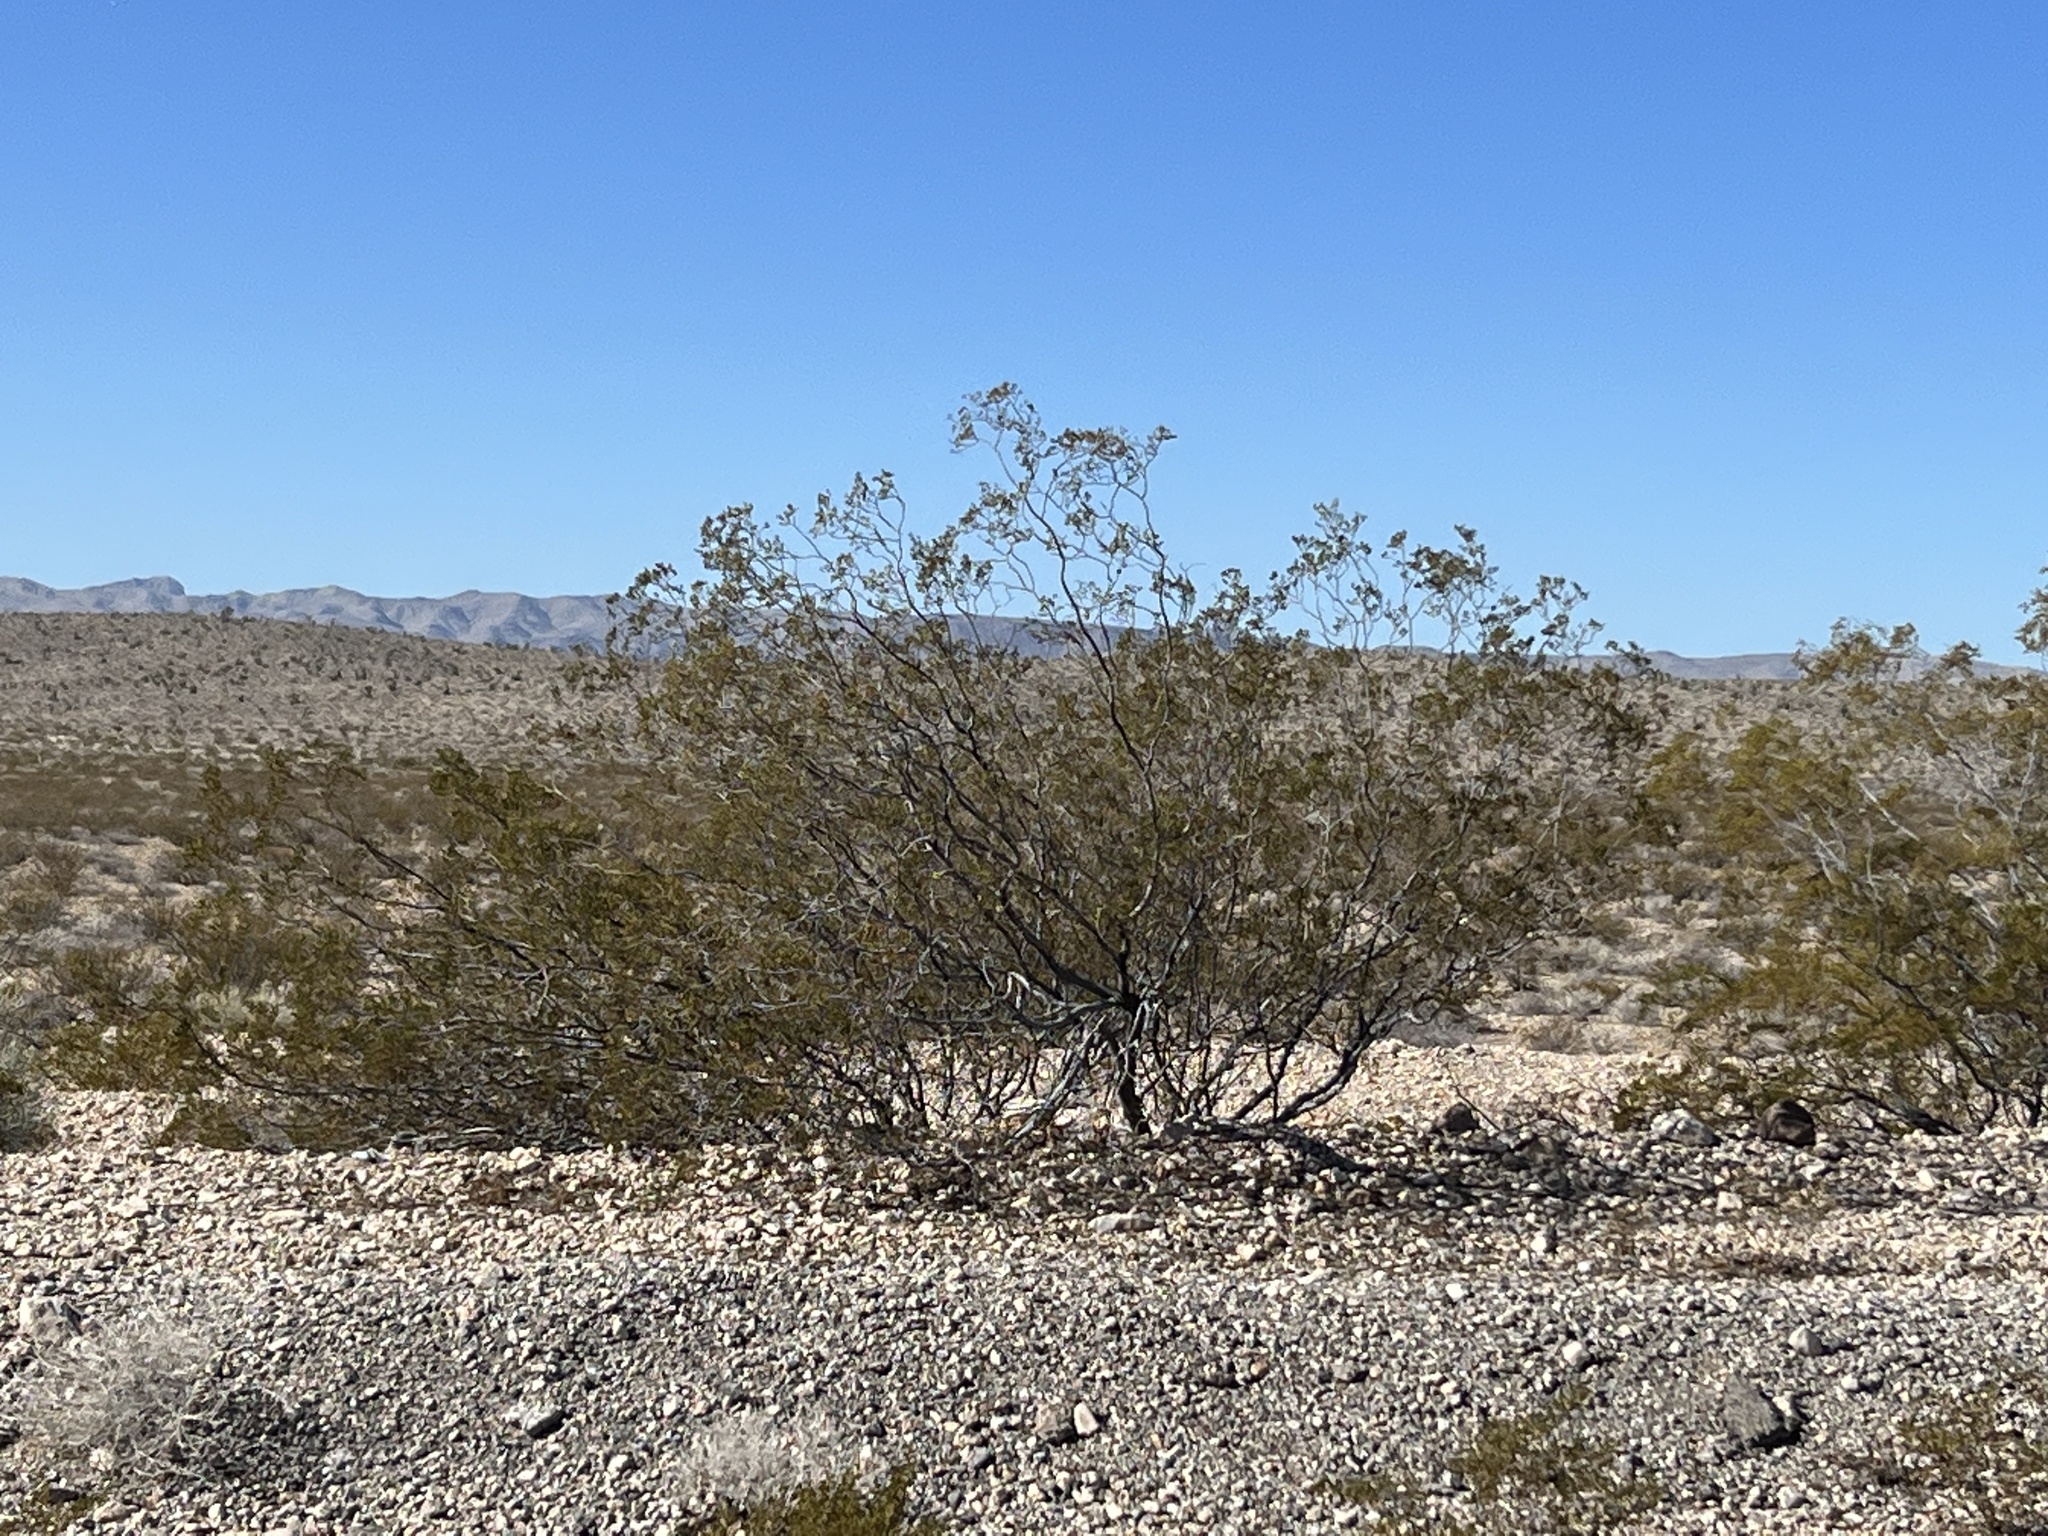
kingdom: Plantae
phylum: Tracheophyta
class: Magnoliopsida
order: Zygophyllales
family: Zygophyllaceae
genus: Larrea
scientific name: Larrea tridentata
